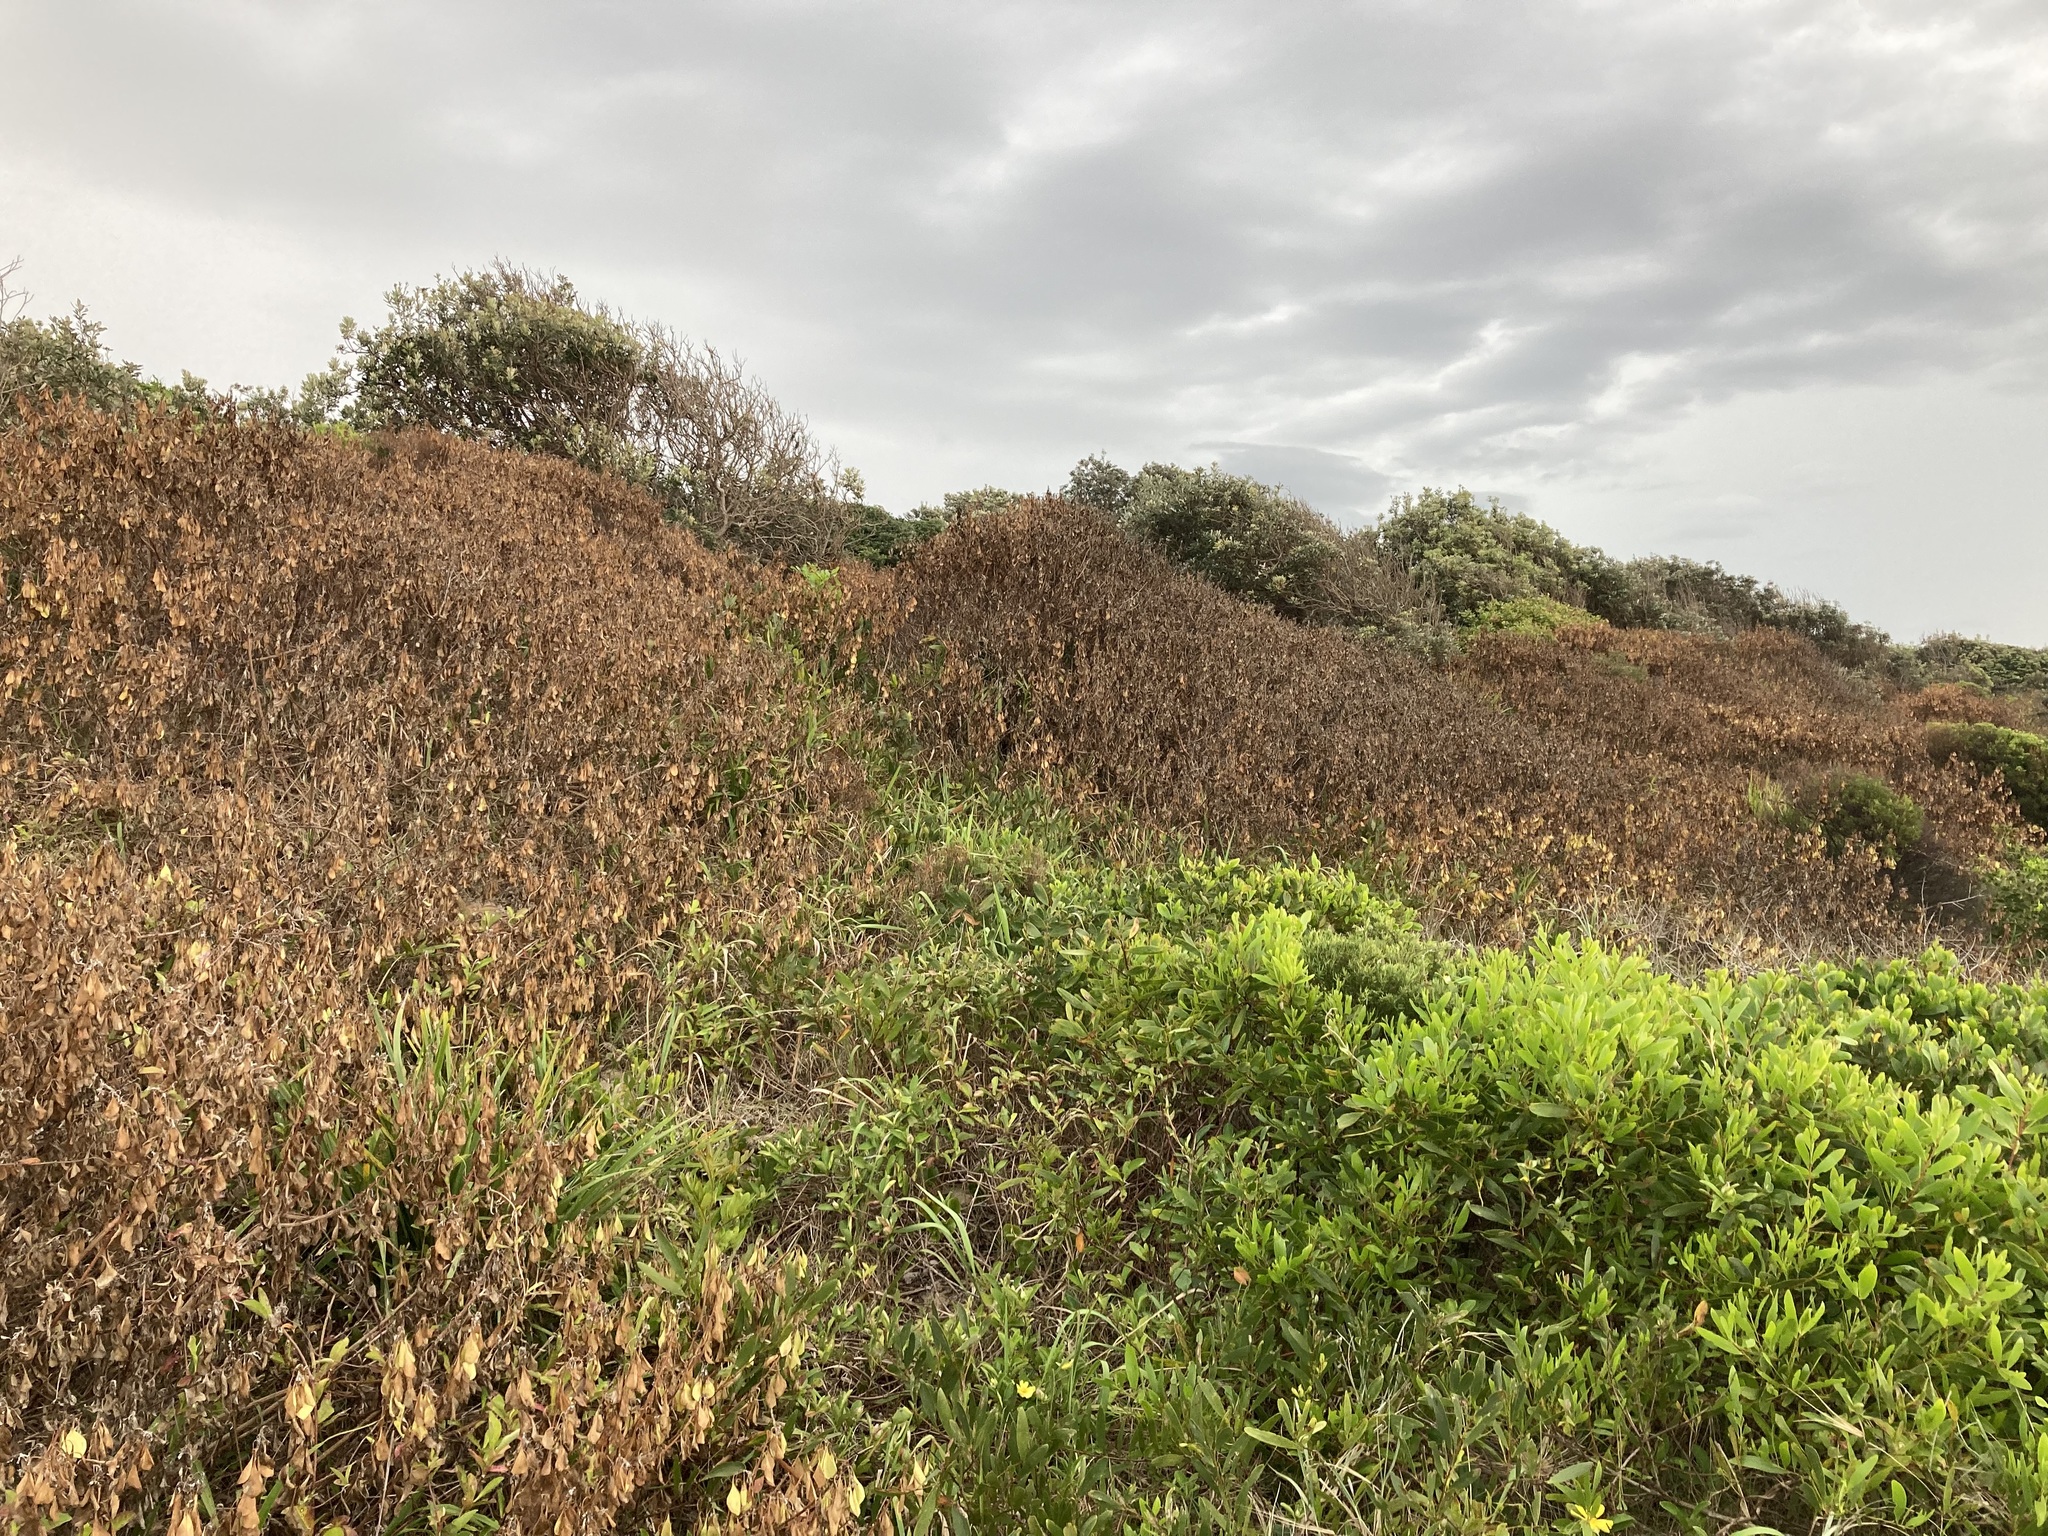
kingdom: Plantae
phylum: Tracheophyta
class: Magnoliopsida
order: Asterales
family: Asteraceae
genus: Osteospermum
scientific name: Osteospermum moniliferum
